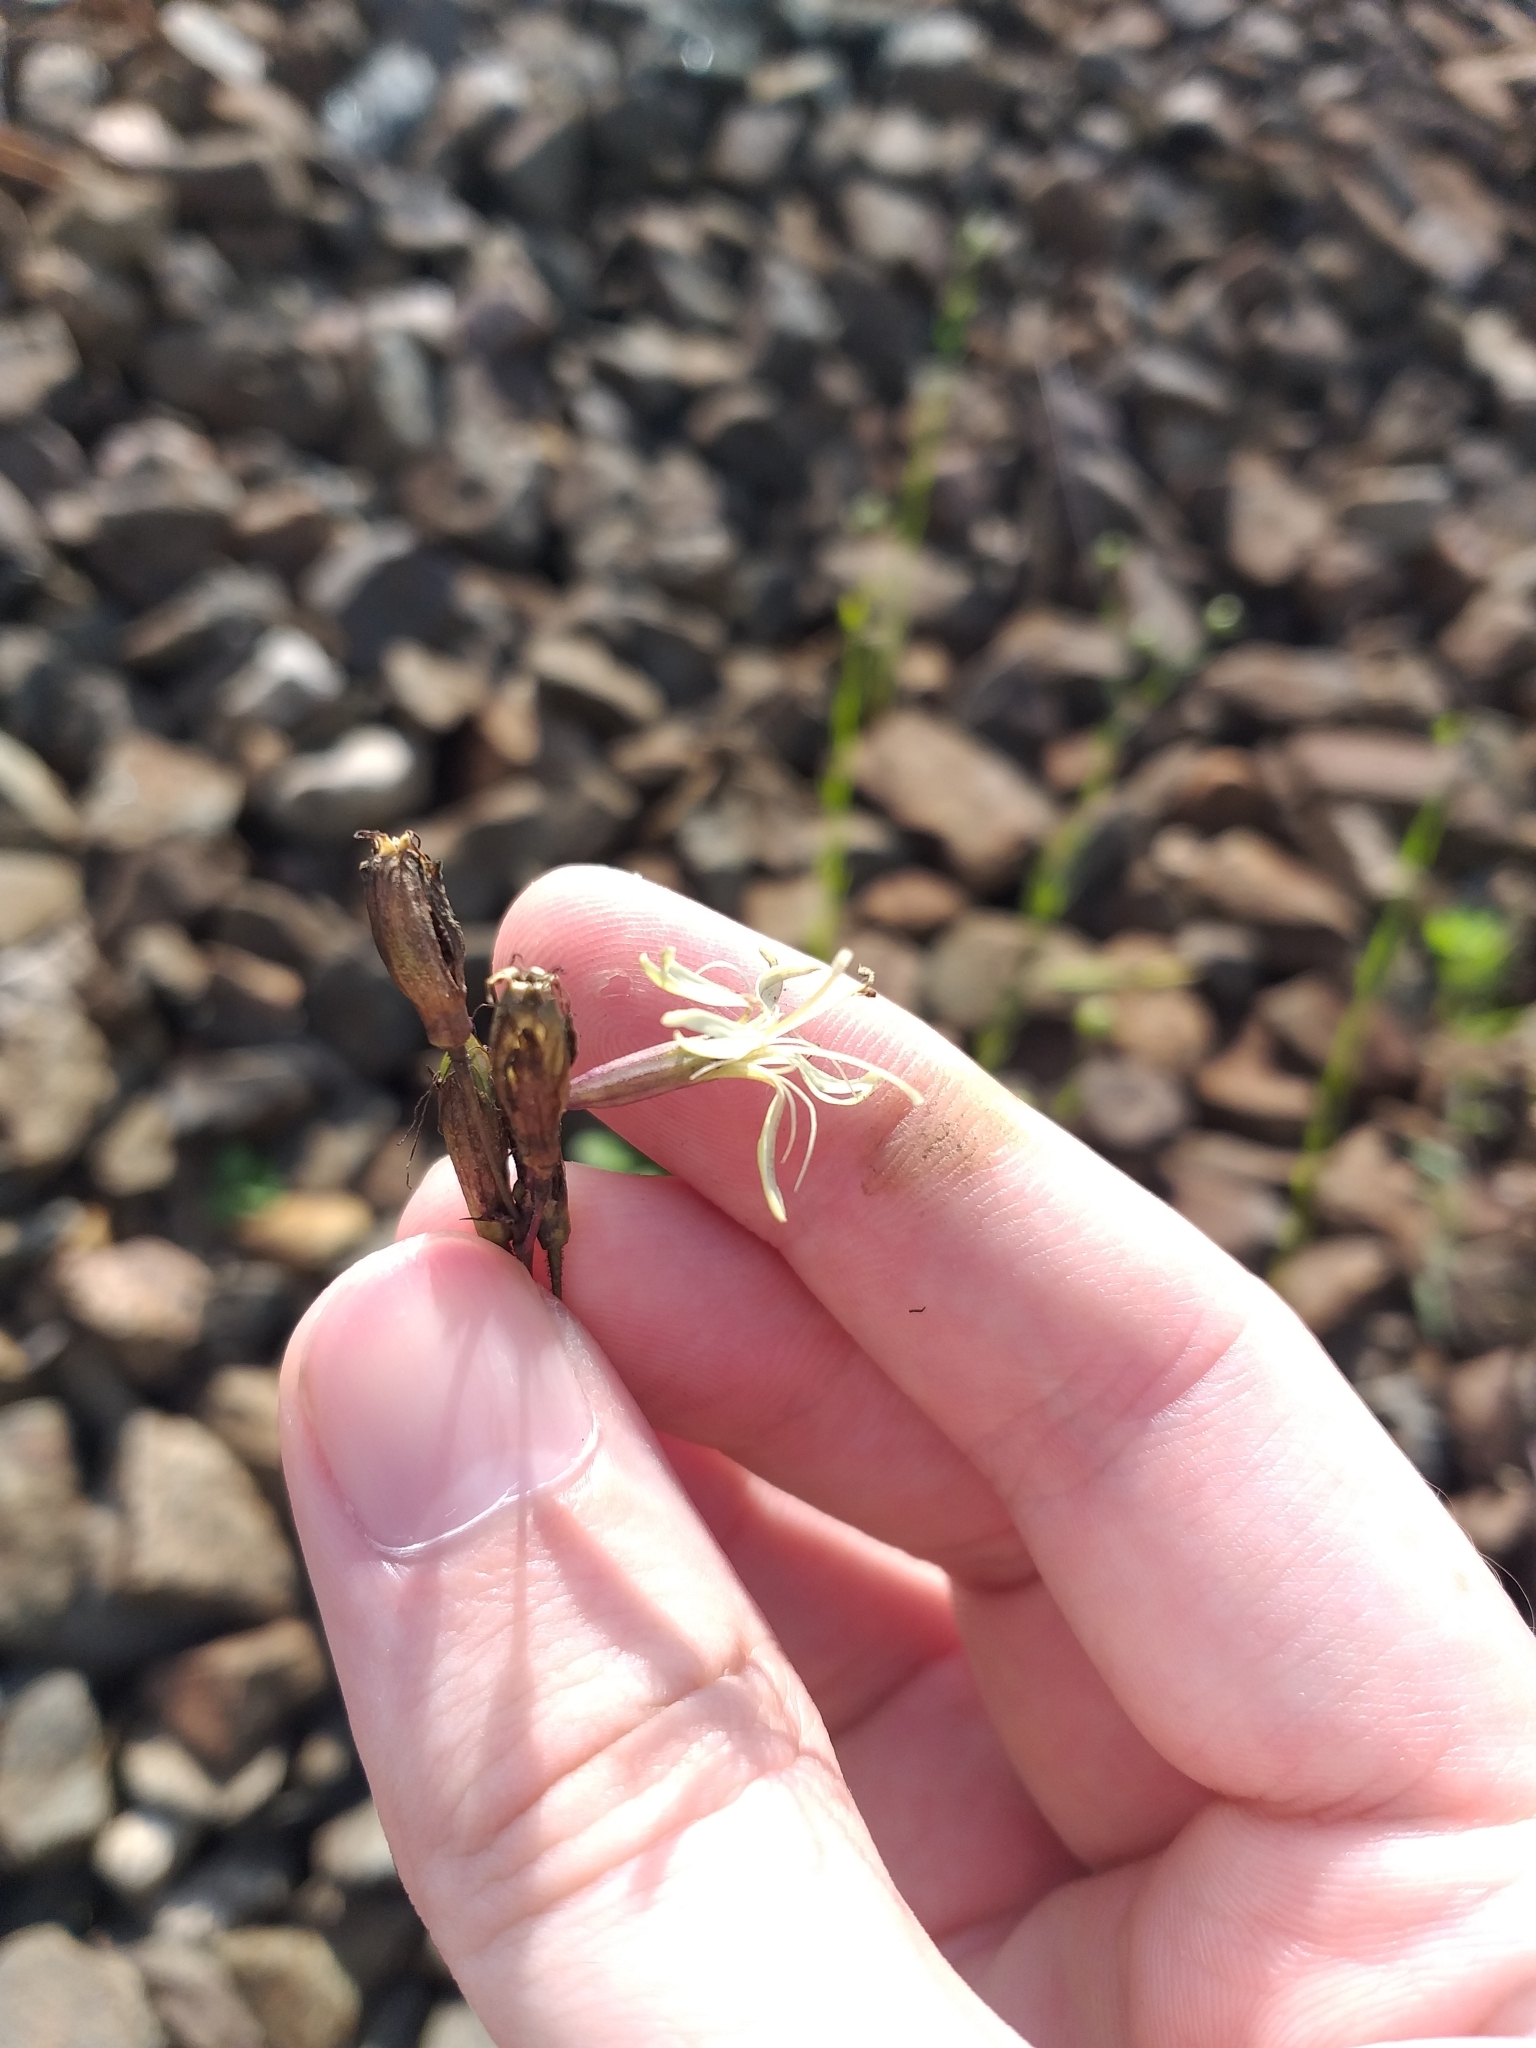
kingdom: Plantae
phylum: Tracheophyta
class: Magnoliopsida
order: Caryophyllales
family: Caryophyllaceae
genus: Silene
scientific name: Silene tatarica
